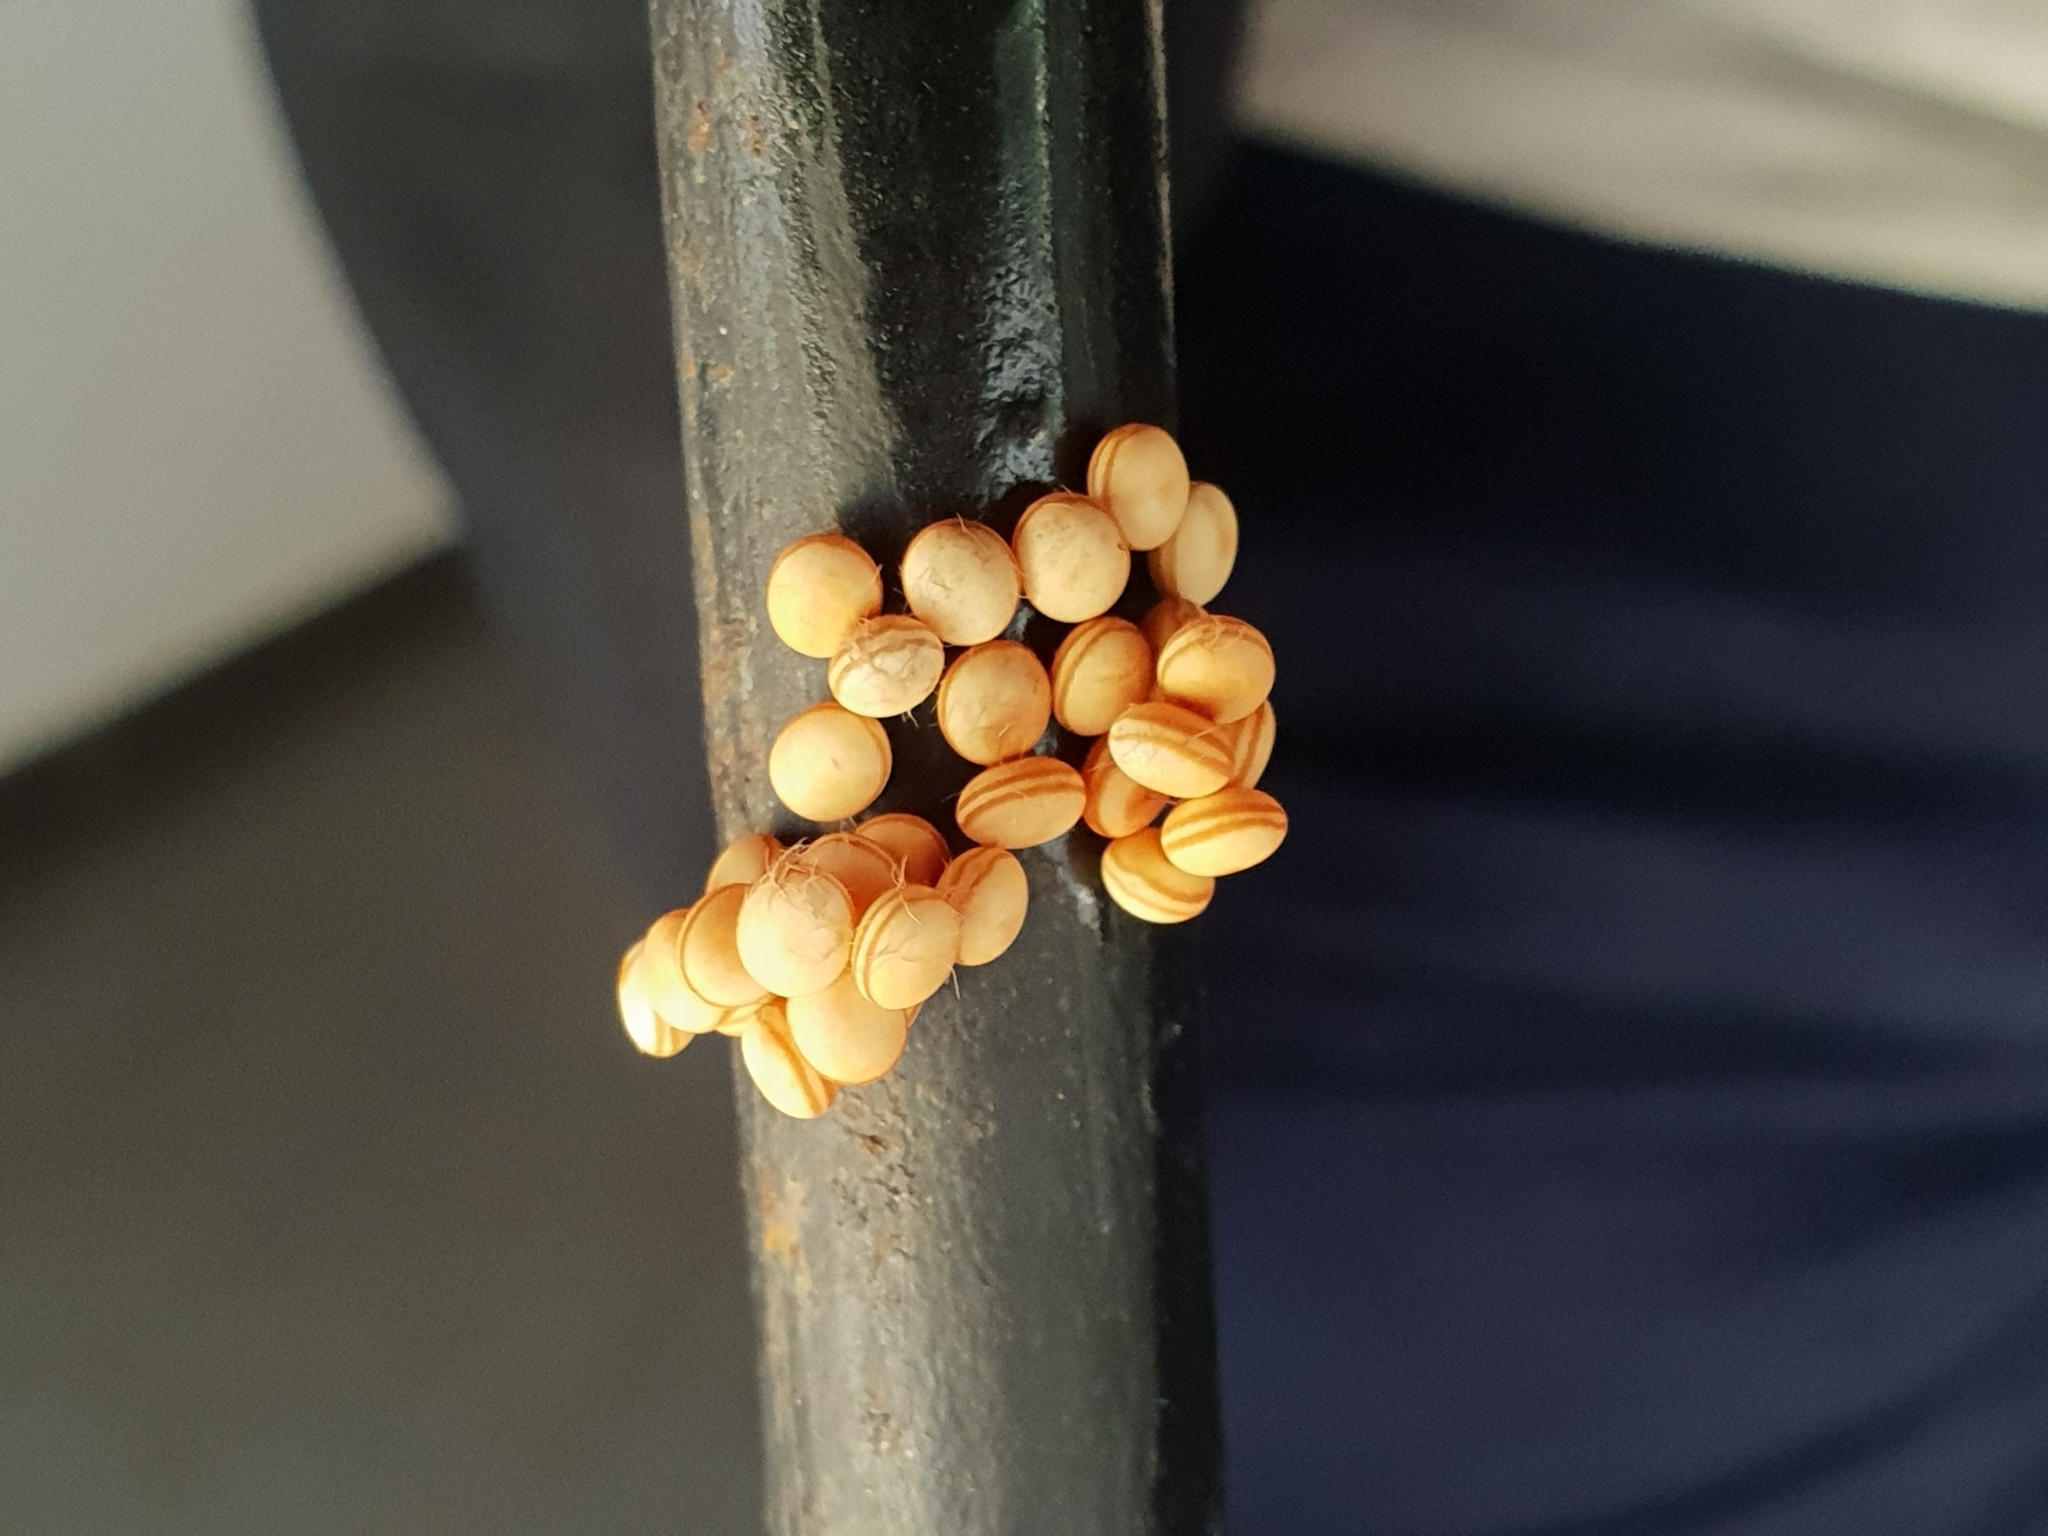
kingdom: Animalia
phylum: Arthropoda
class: Insecta
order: Lepidoptera
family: Saturniidae
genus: Antheraea
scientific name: Antheraea cingalesa
